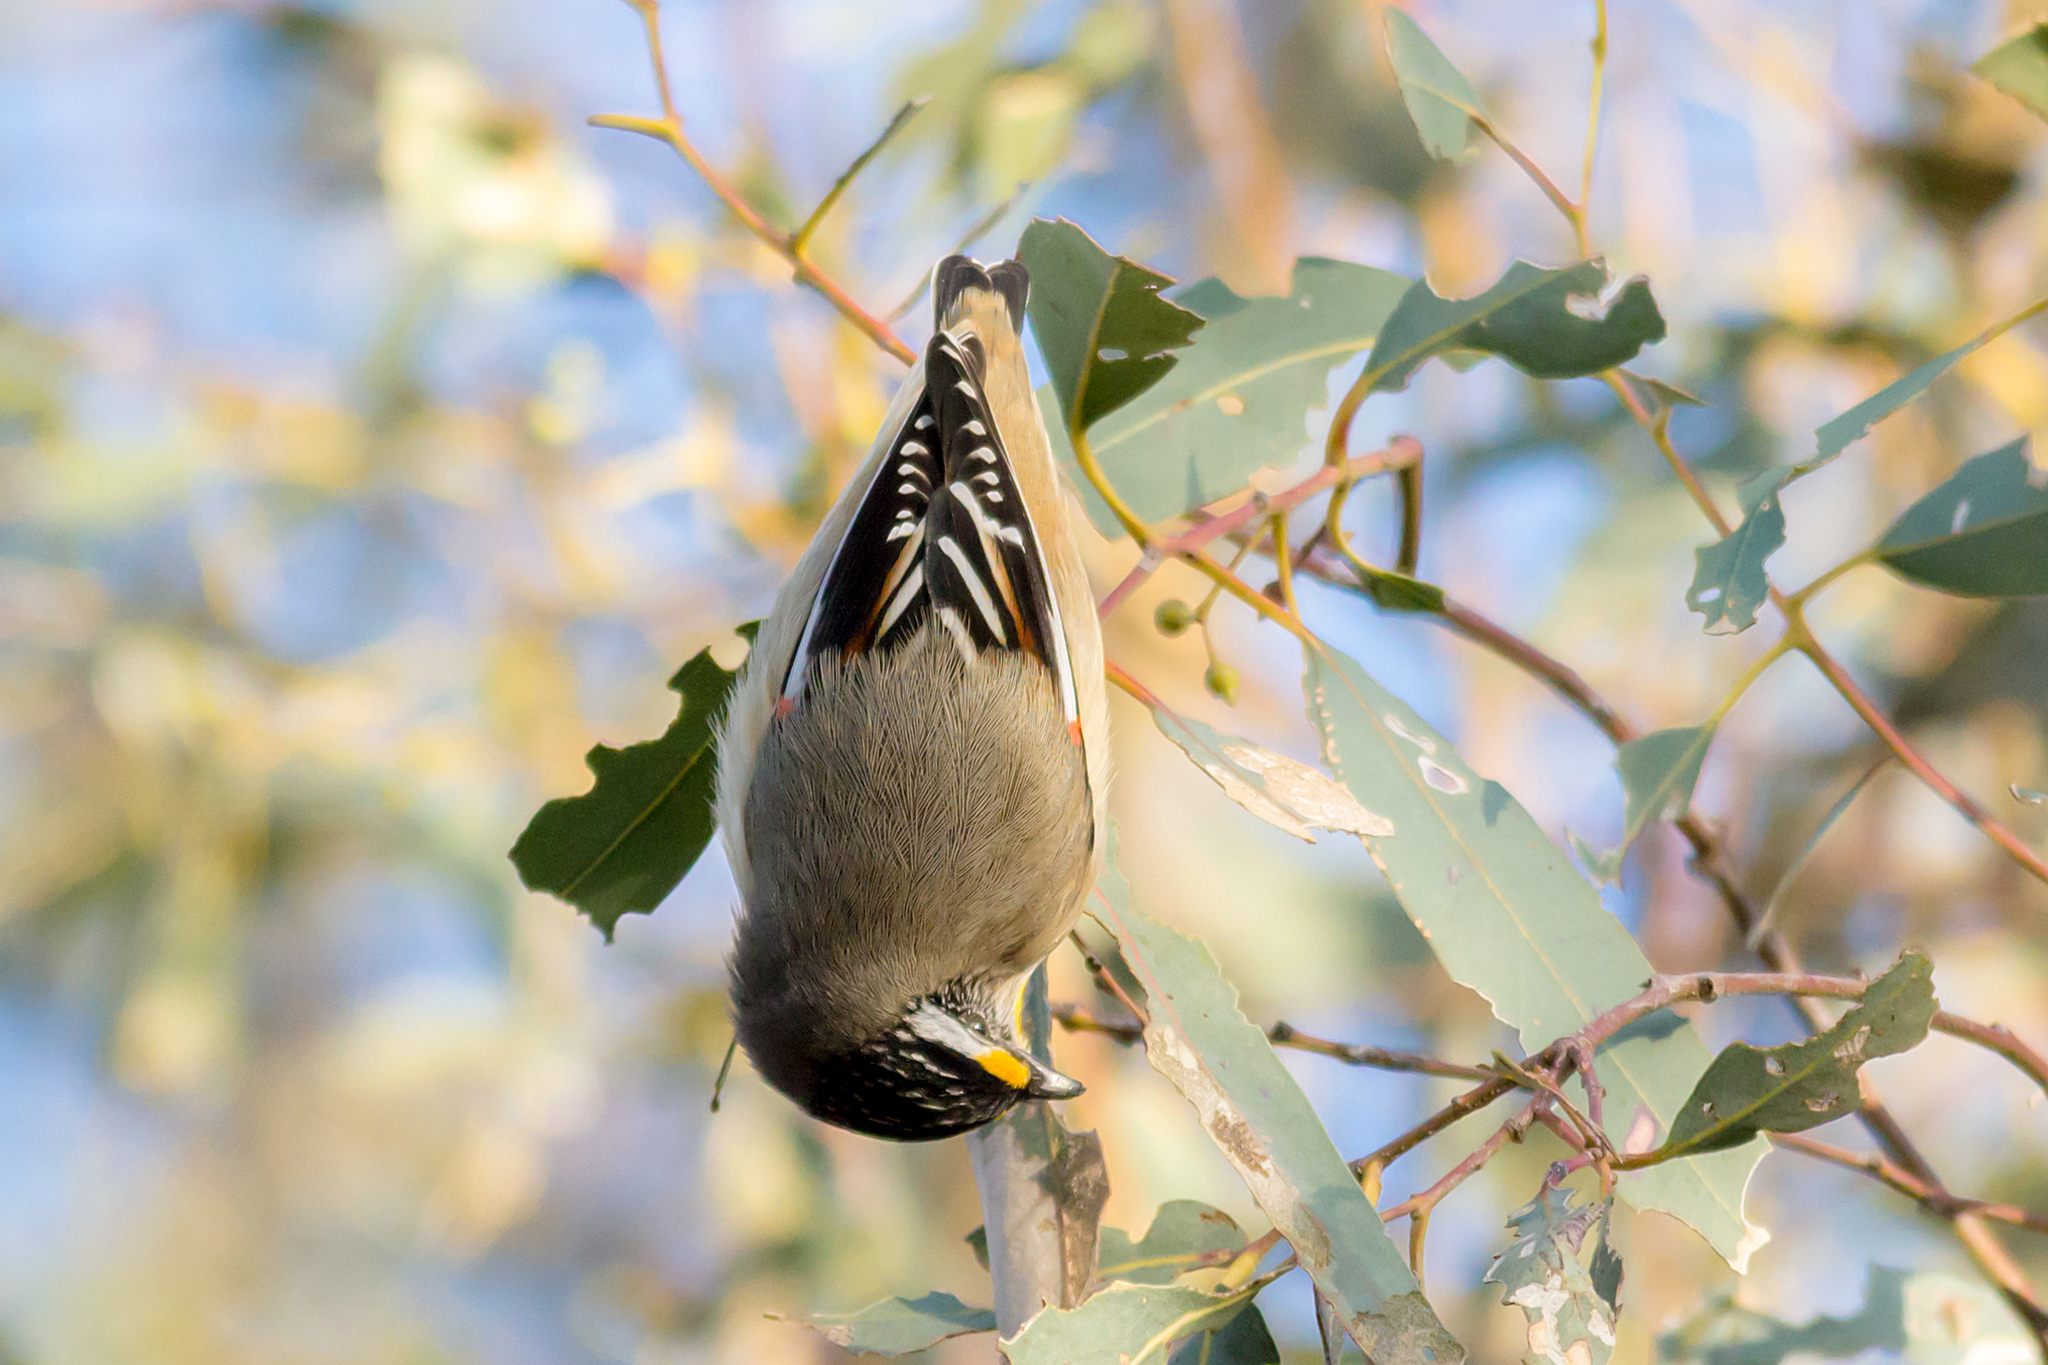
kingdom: Animalia
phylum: Chordata
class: Aves
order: Passeriformes
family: Pardalotidae
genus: Pardalotus
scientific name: Pardalotus striatus
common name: Striated pardalote
